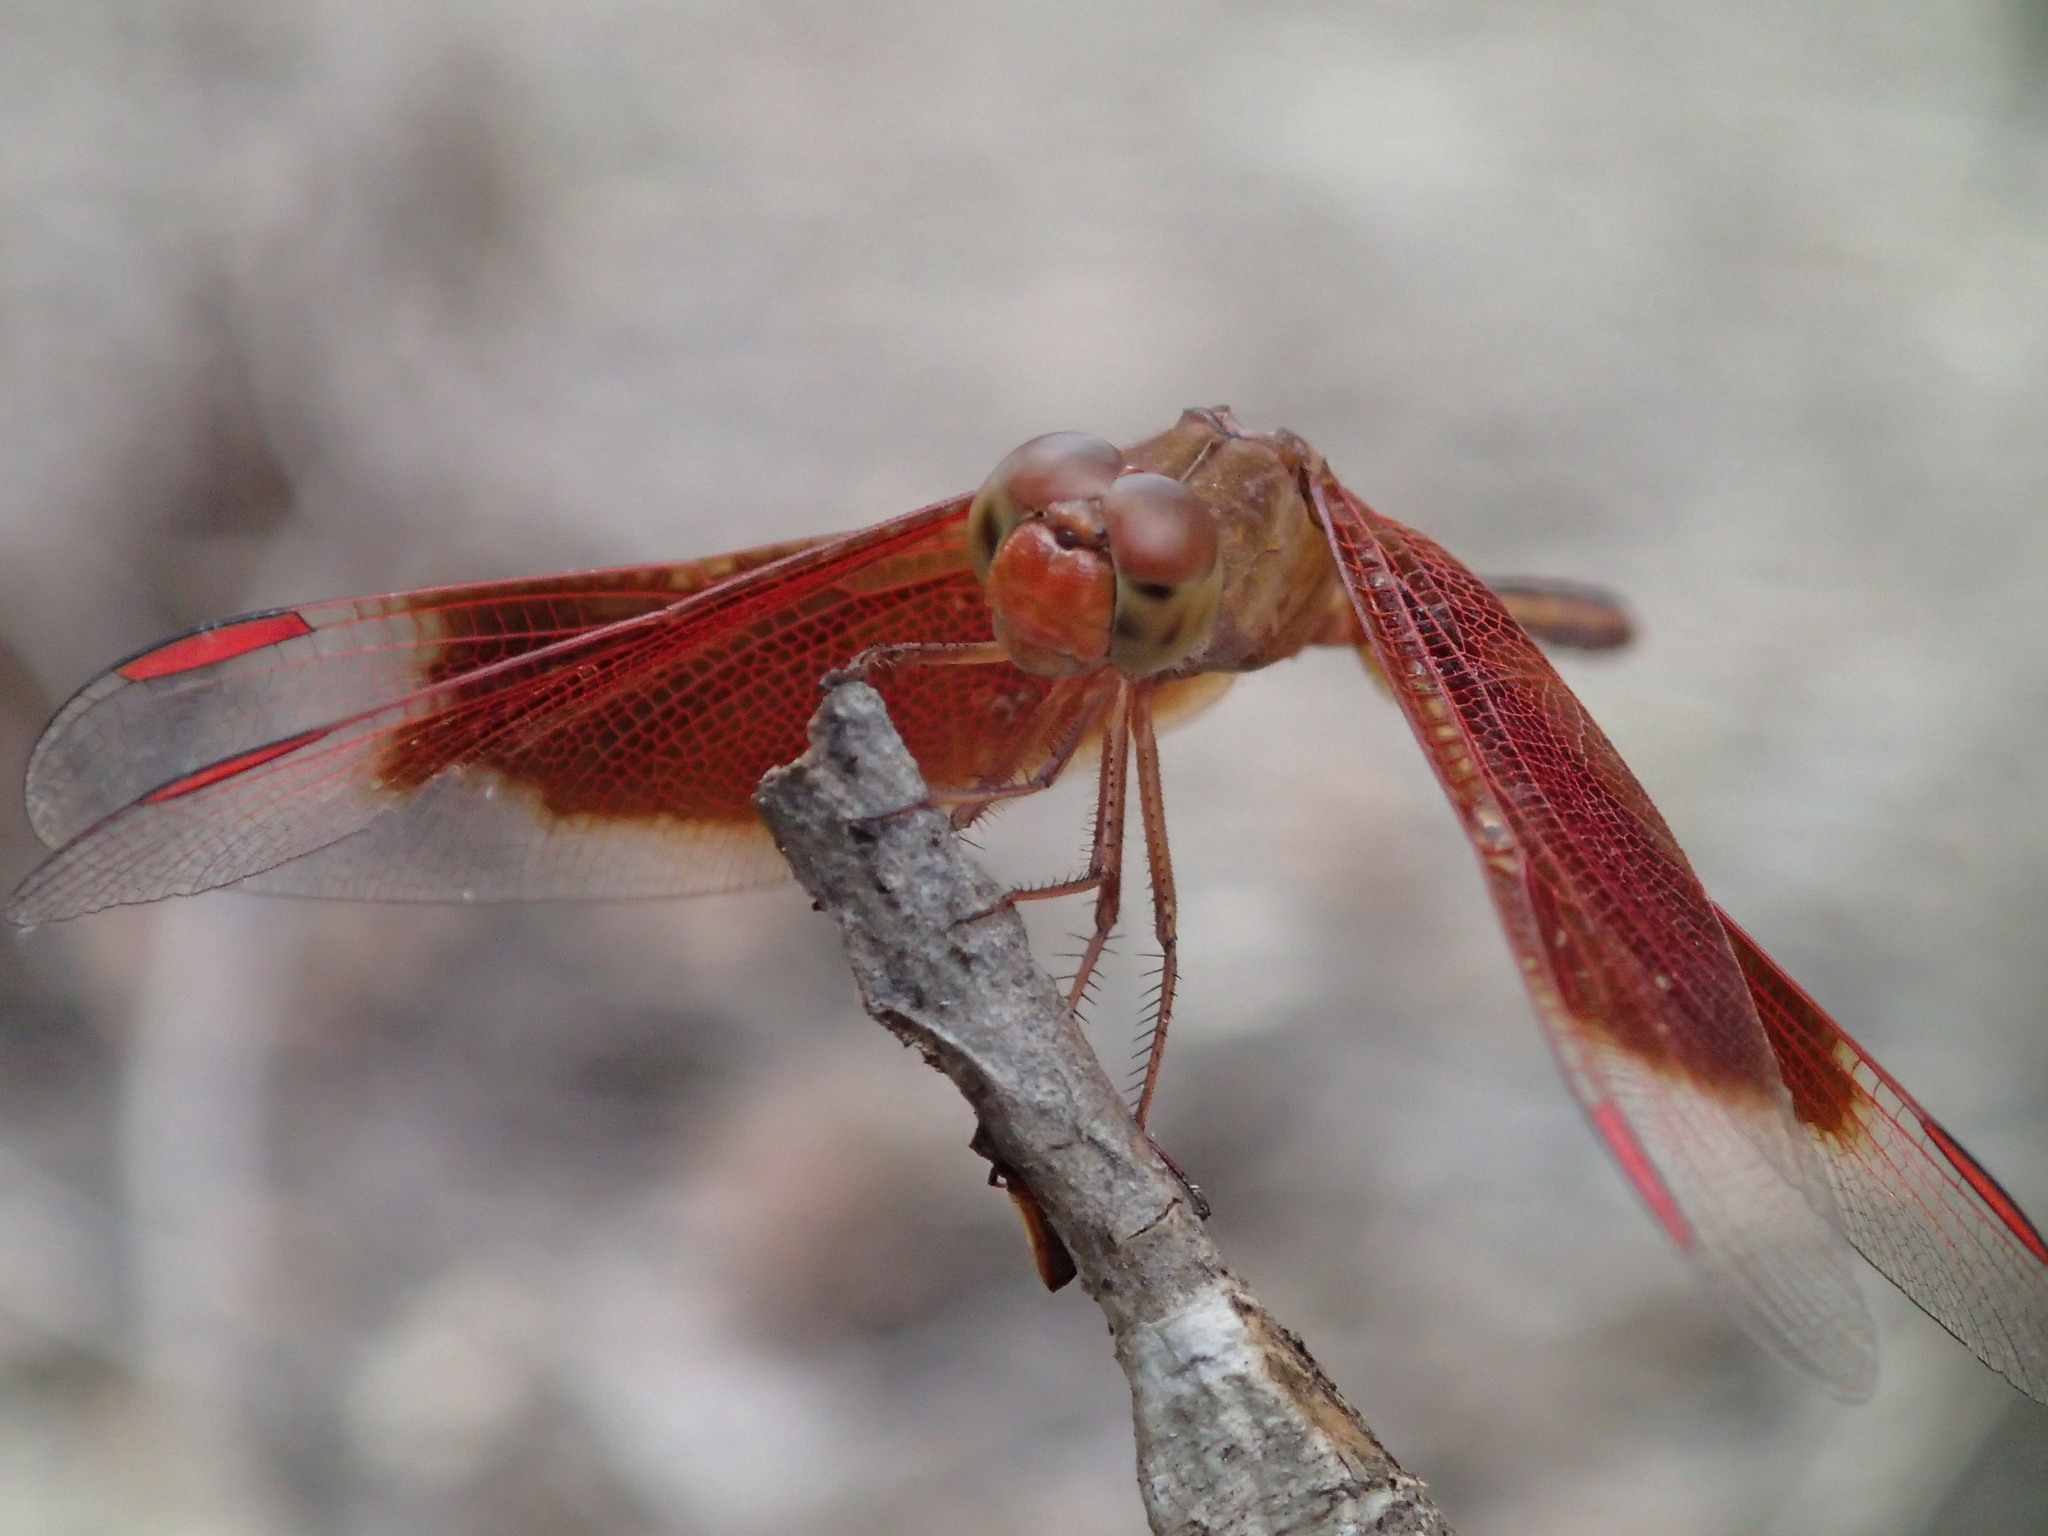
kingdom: Animalia
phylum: Arthropoda
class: Insecta
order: Odonata
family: Libellulidae
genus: Neurothemis
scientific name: Neurothemis stigmatizans
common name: Painted grasshawk
